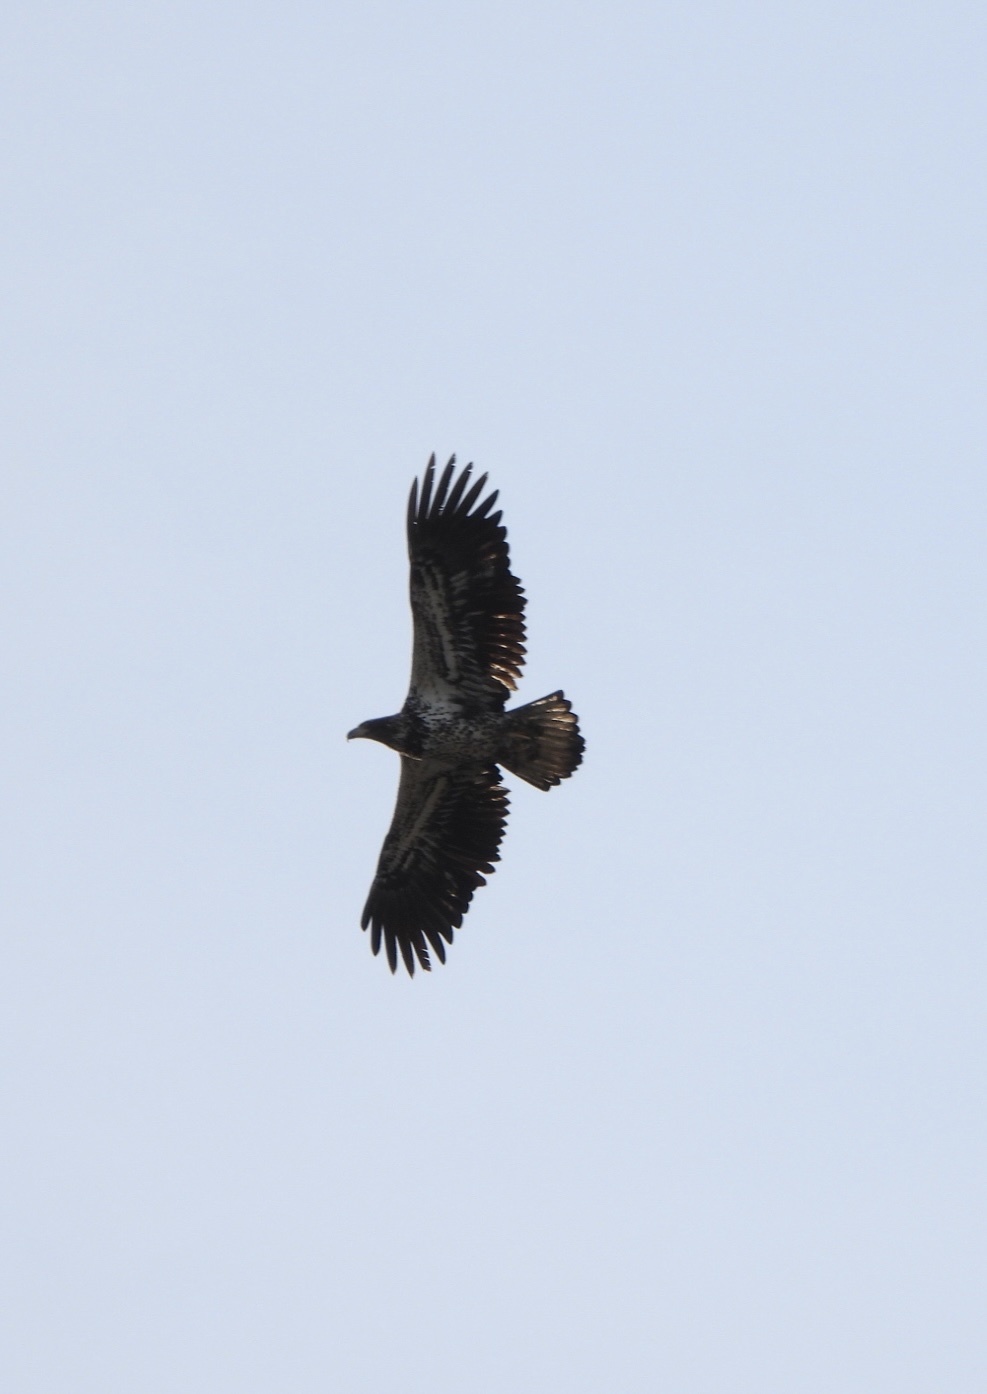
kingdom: Animalia
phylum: Chordata
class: Aves
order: Accipitriformes
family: Accipitridae
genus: Haliaeetus
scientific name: Haliaeetus leucocephalus
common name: Bald eagle
